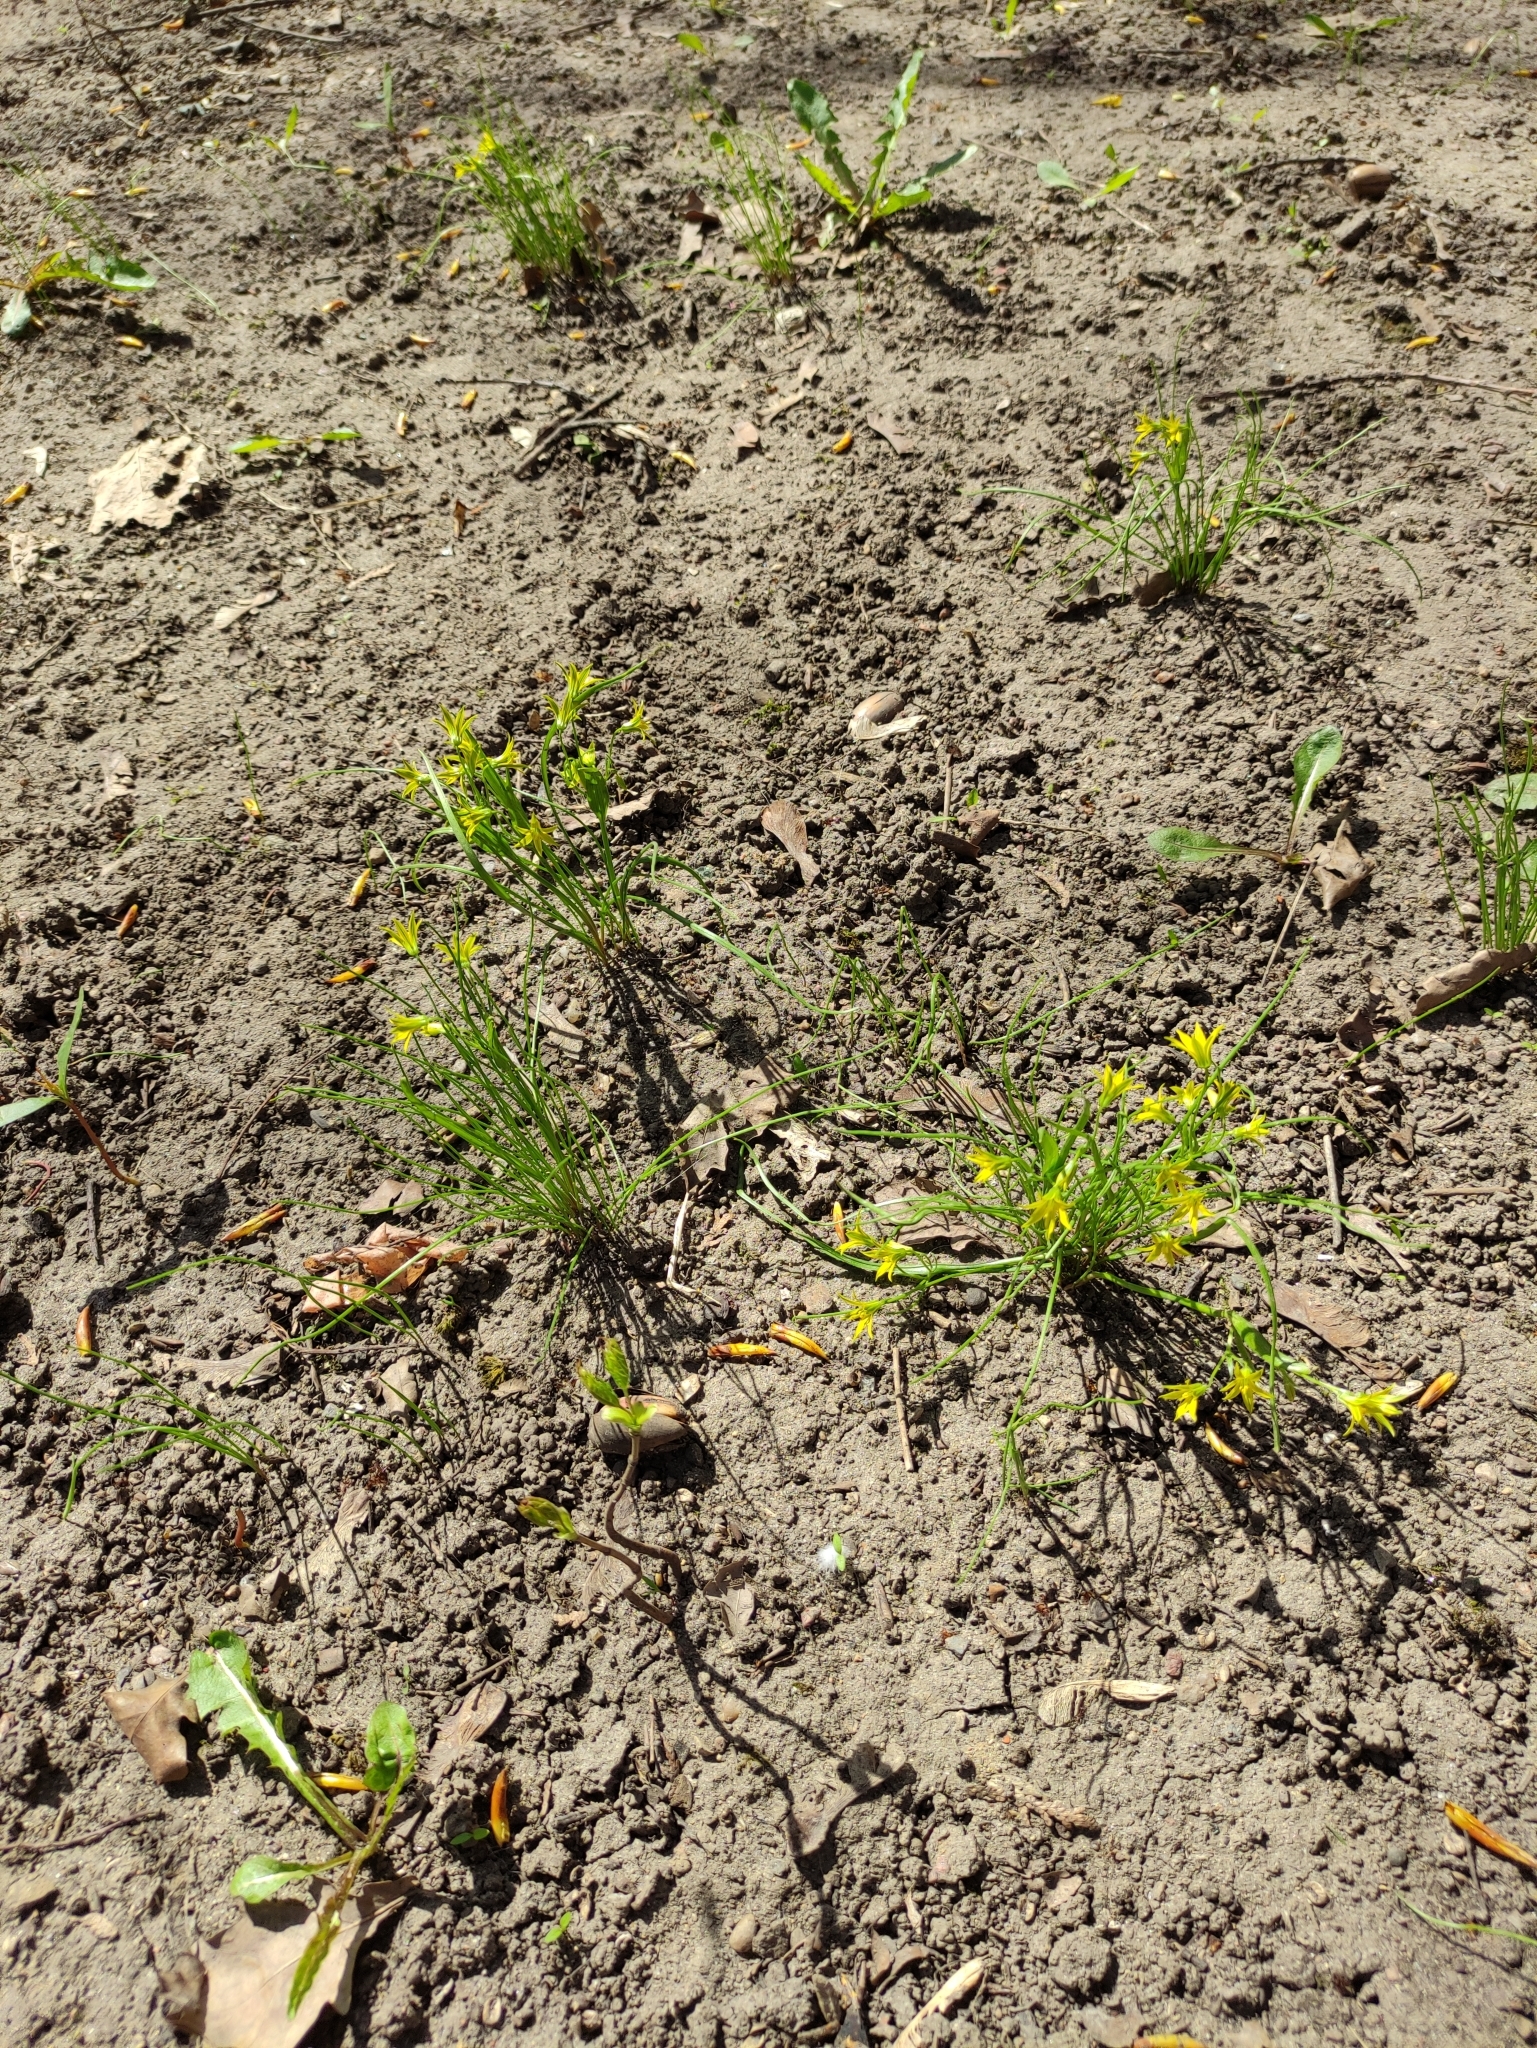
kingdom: Plantae
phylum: Tracheophyta
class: Liliopsida
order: Liliales
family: Liliaceae
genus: Gagea
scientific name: Gagea minima
